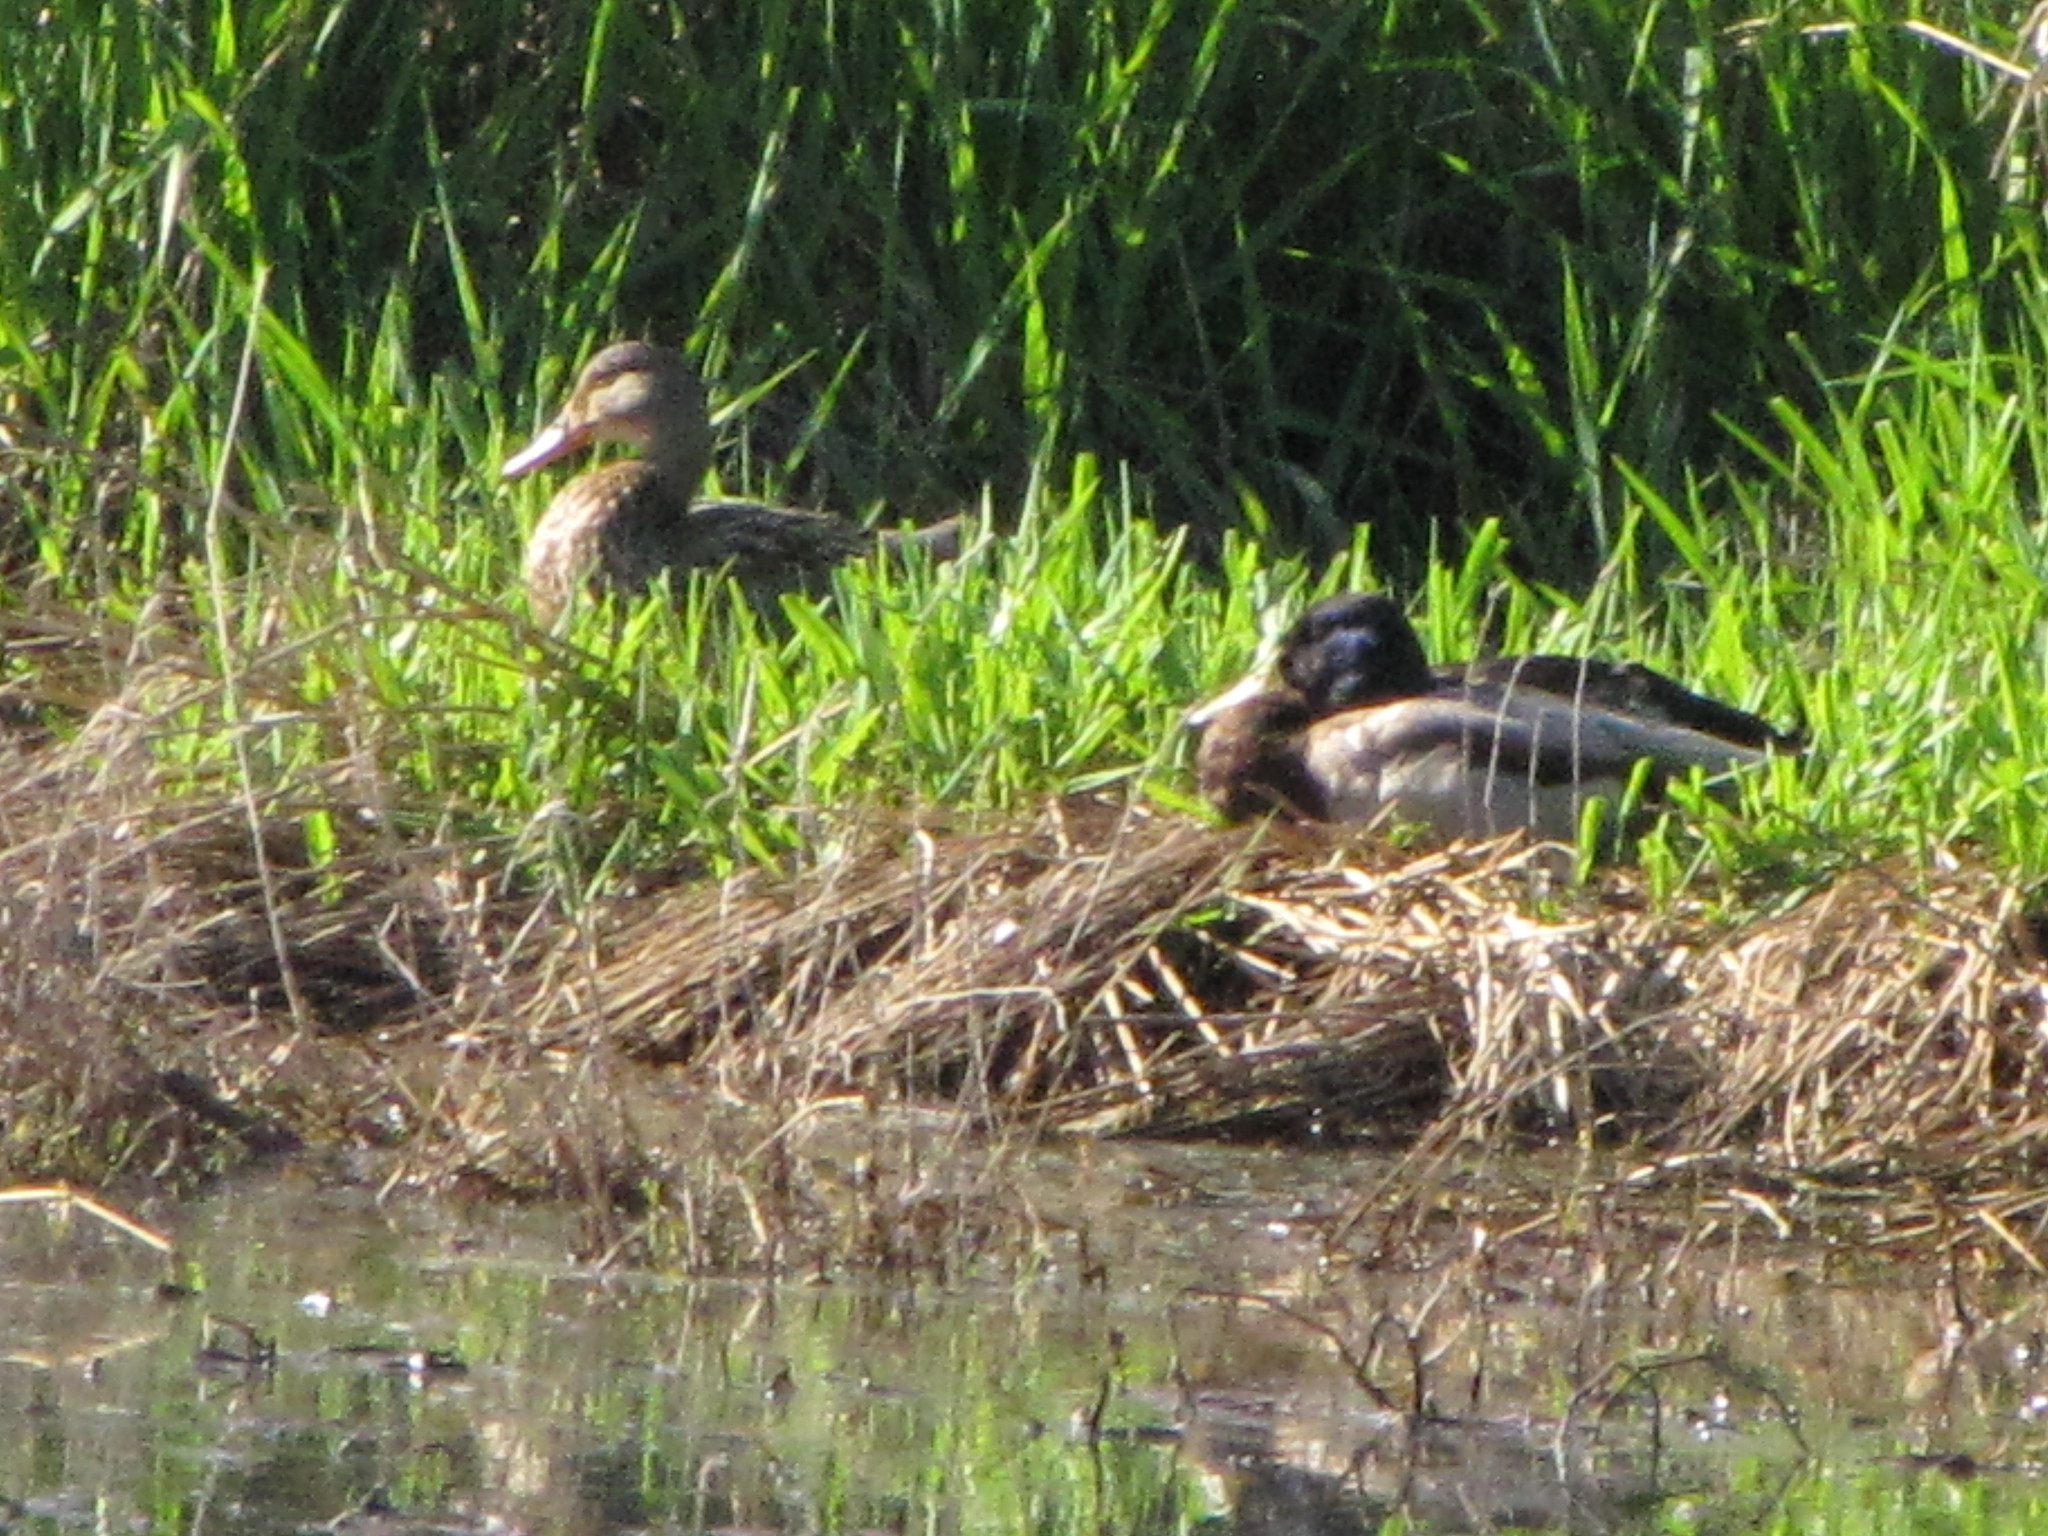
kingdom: Animalia
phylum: Chordata
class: Aves
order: Anseriformes
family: Anatidae
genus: Anas
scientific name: Anas platyrhynchos
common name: Mallard
